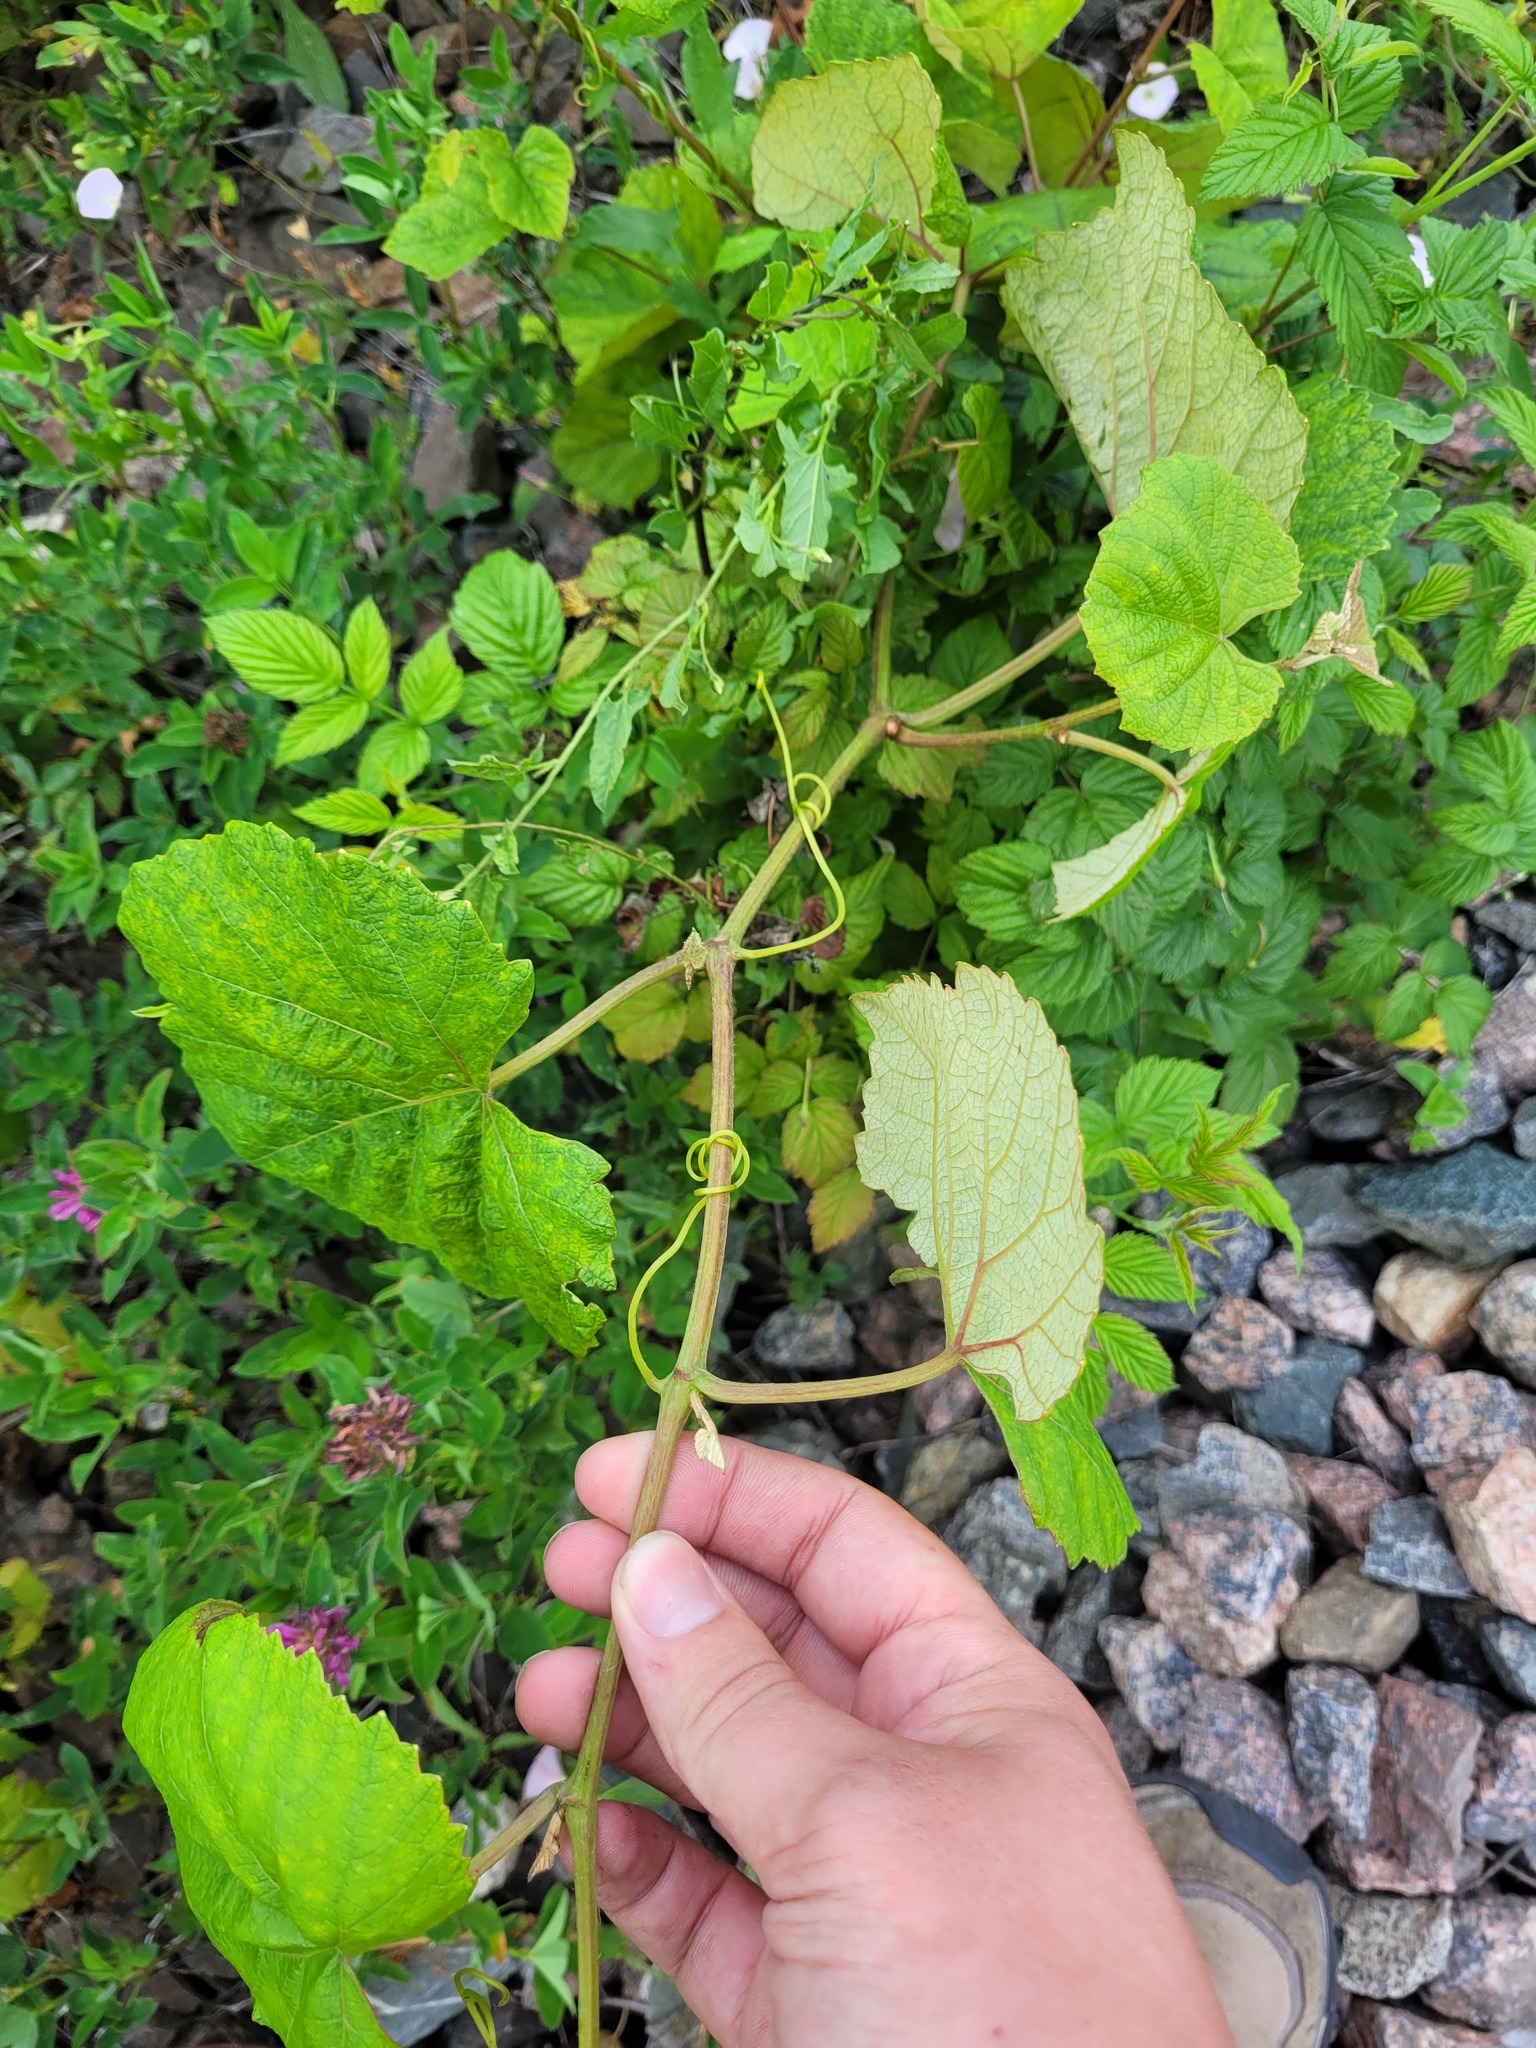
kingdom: Plantae
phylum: Tracheophyta
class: Magnoliopsida
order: Vitales
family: Vitaceae
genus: Vitis
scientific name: Vitis labrusca
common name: Concord grape
